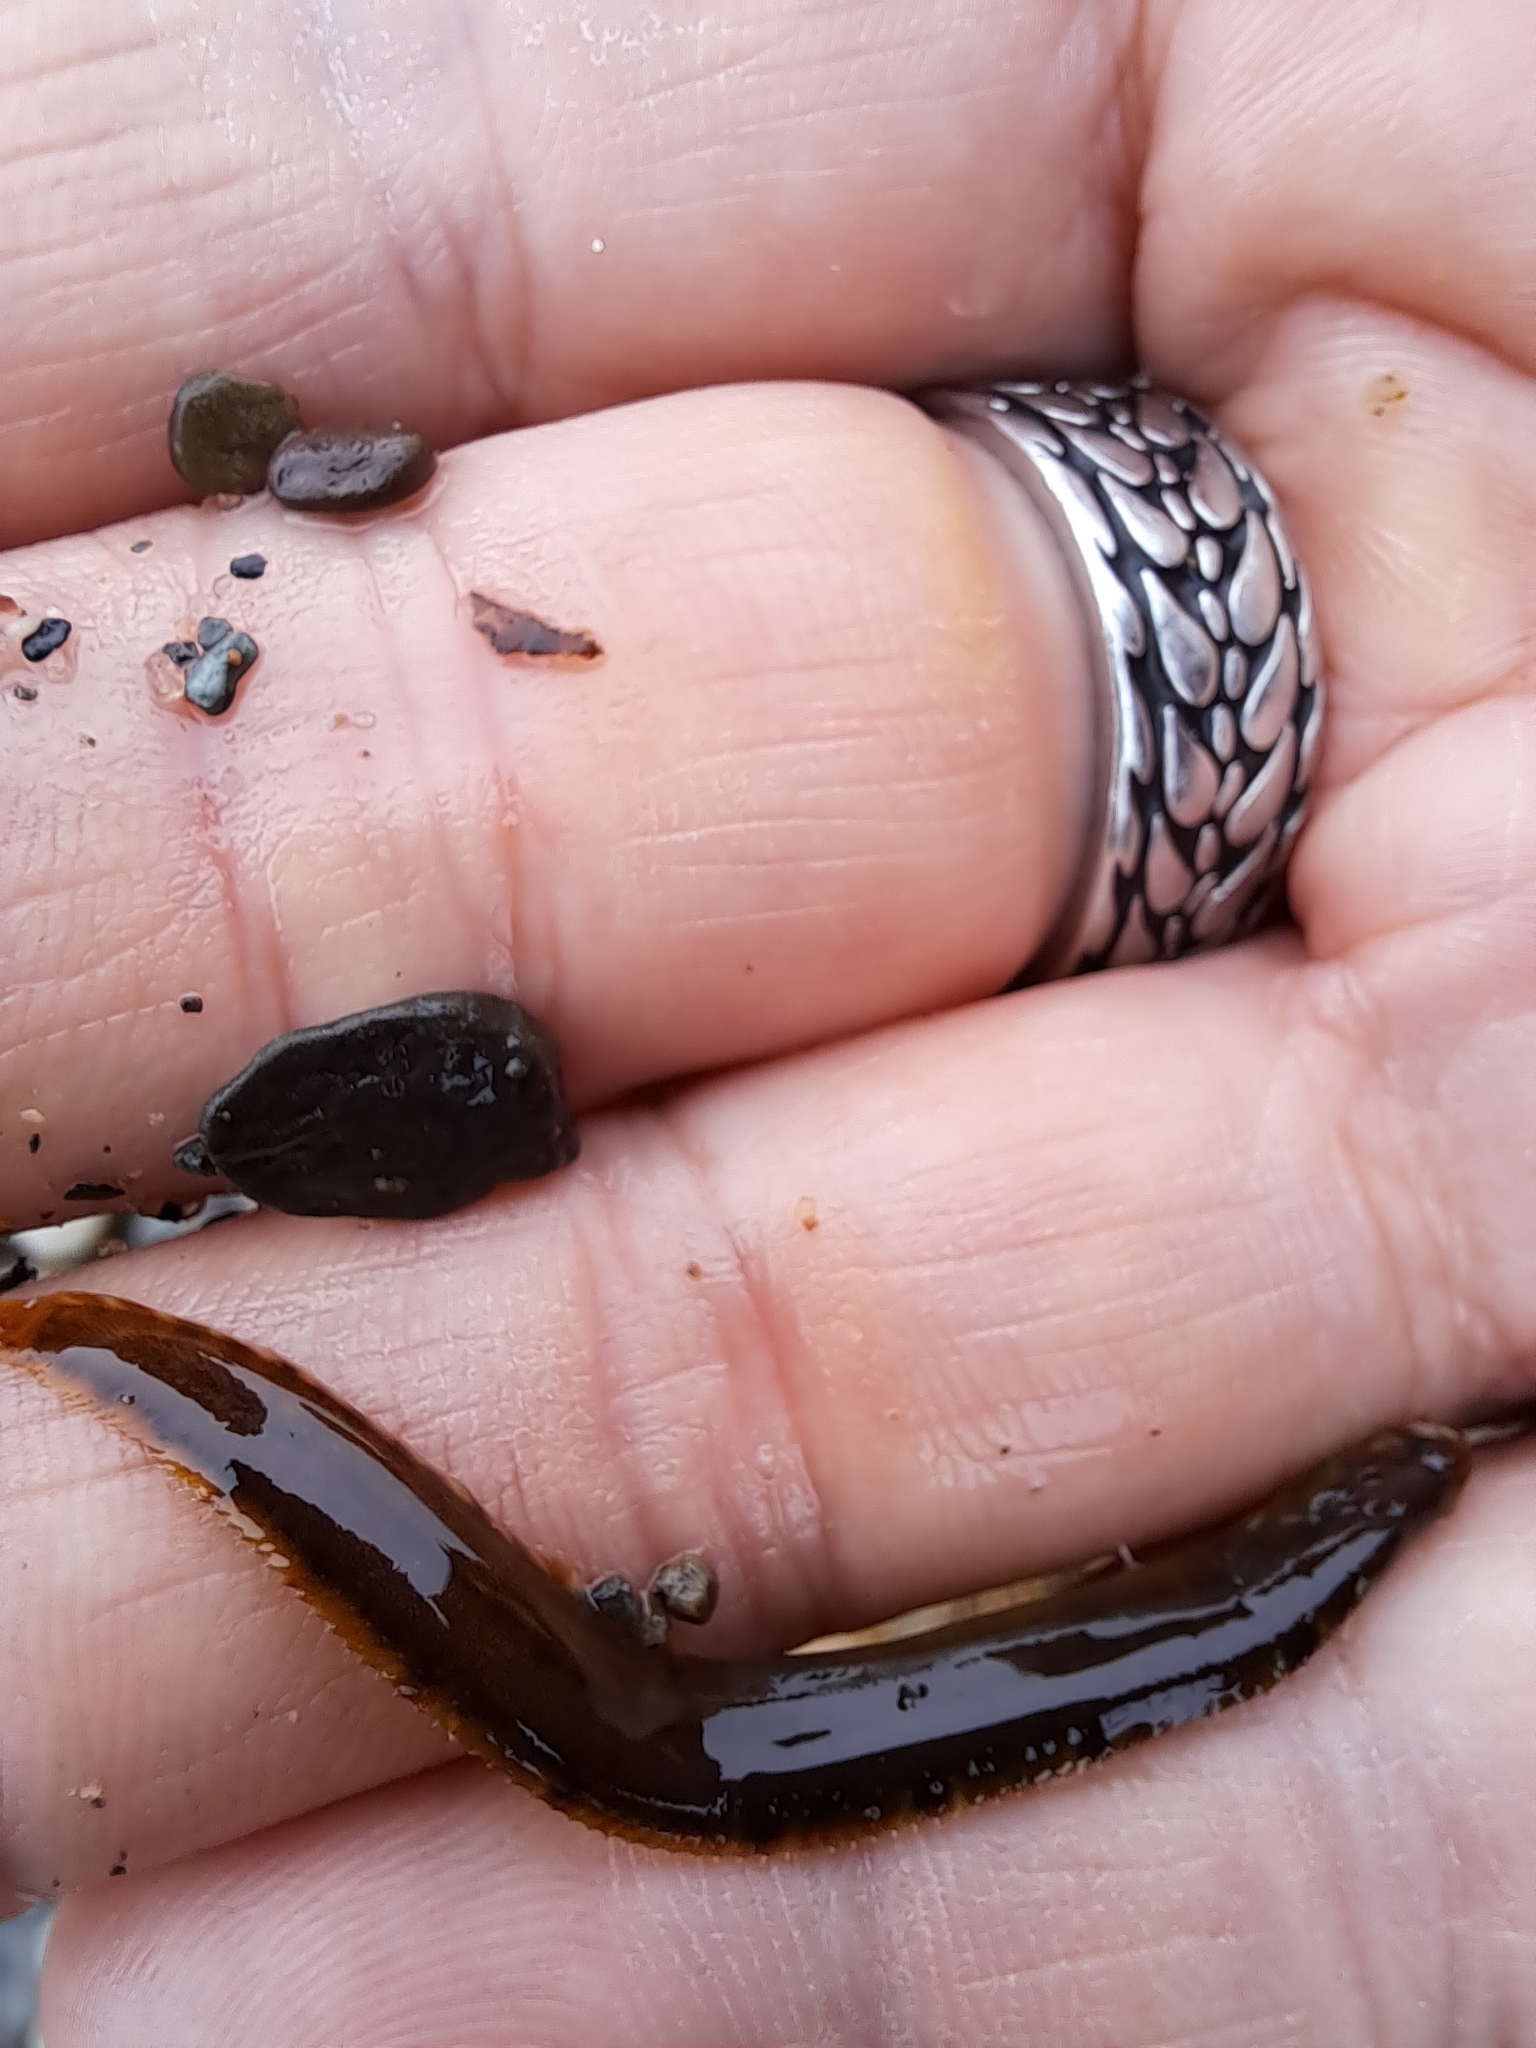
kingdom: Animalia
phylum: Chordata
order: Perciformes
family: Pholidae
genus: Pholis
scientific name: Pholis gunnellus
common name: Butterfish
